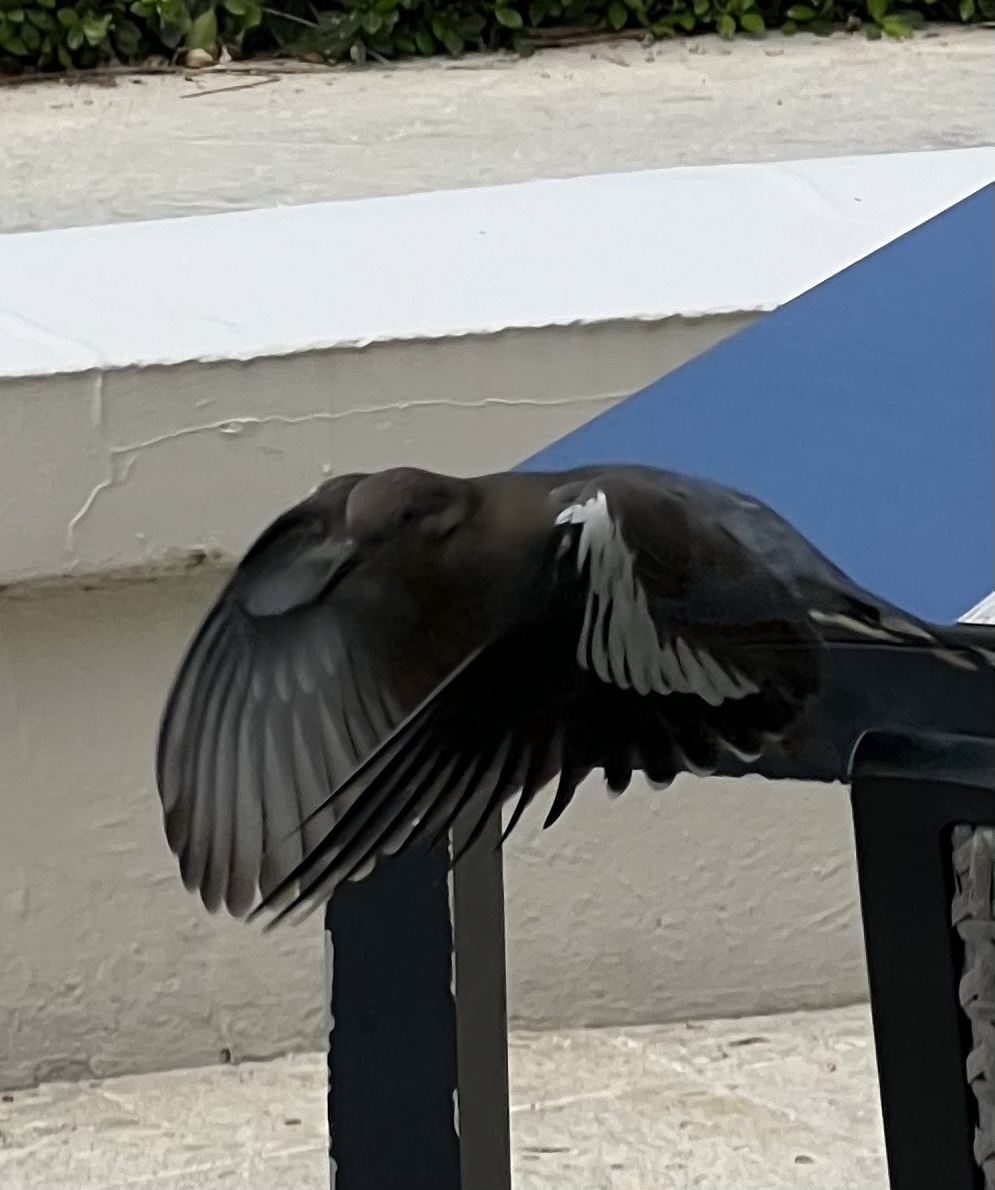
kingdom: Animalia
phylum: Chordata
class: Aves
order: Columbiformes
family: Columbidae
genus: Zenaida
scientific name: Zenaida asiatica
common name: White-winged dove
